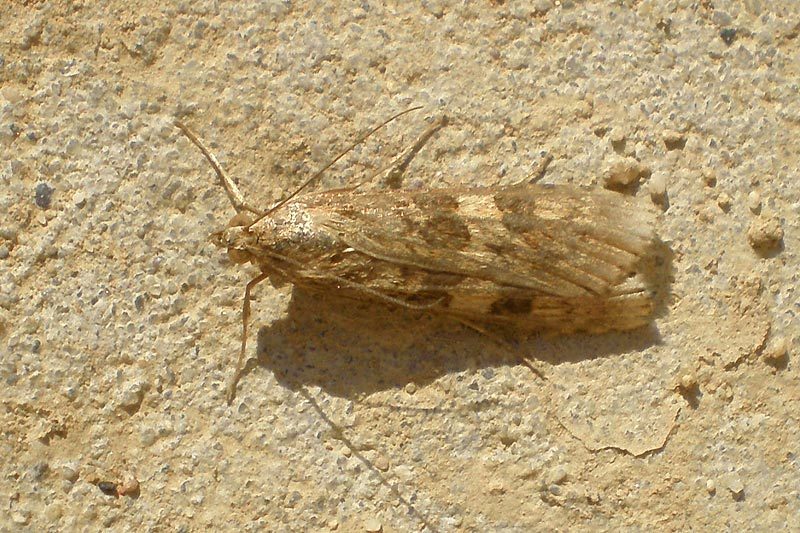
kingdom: Animalia
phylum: Arthropoda
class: Insecta
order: Lepidoptera
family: Crambidae
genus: Nomophila
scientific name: Nomophila noctuella
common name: Rush veneer
